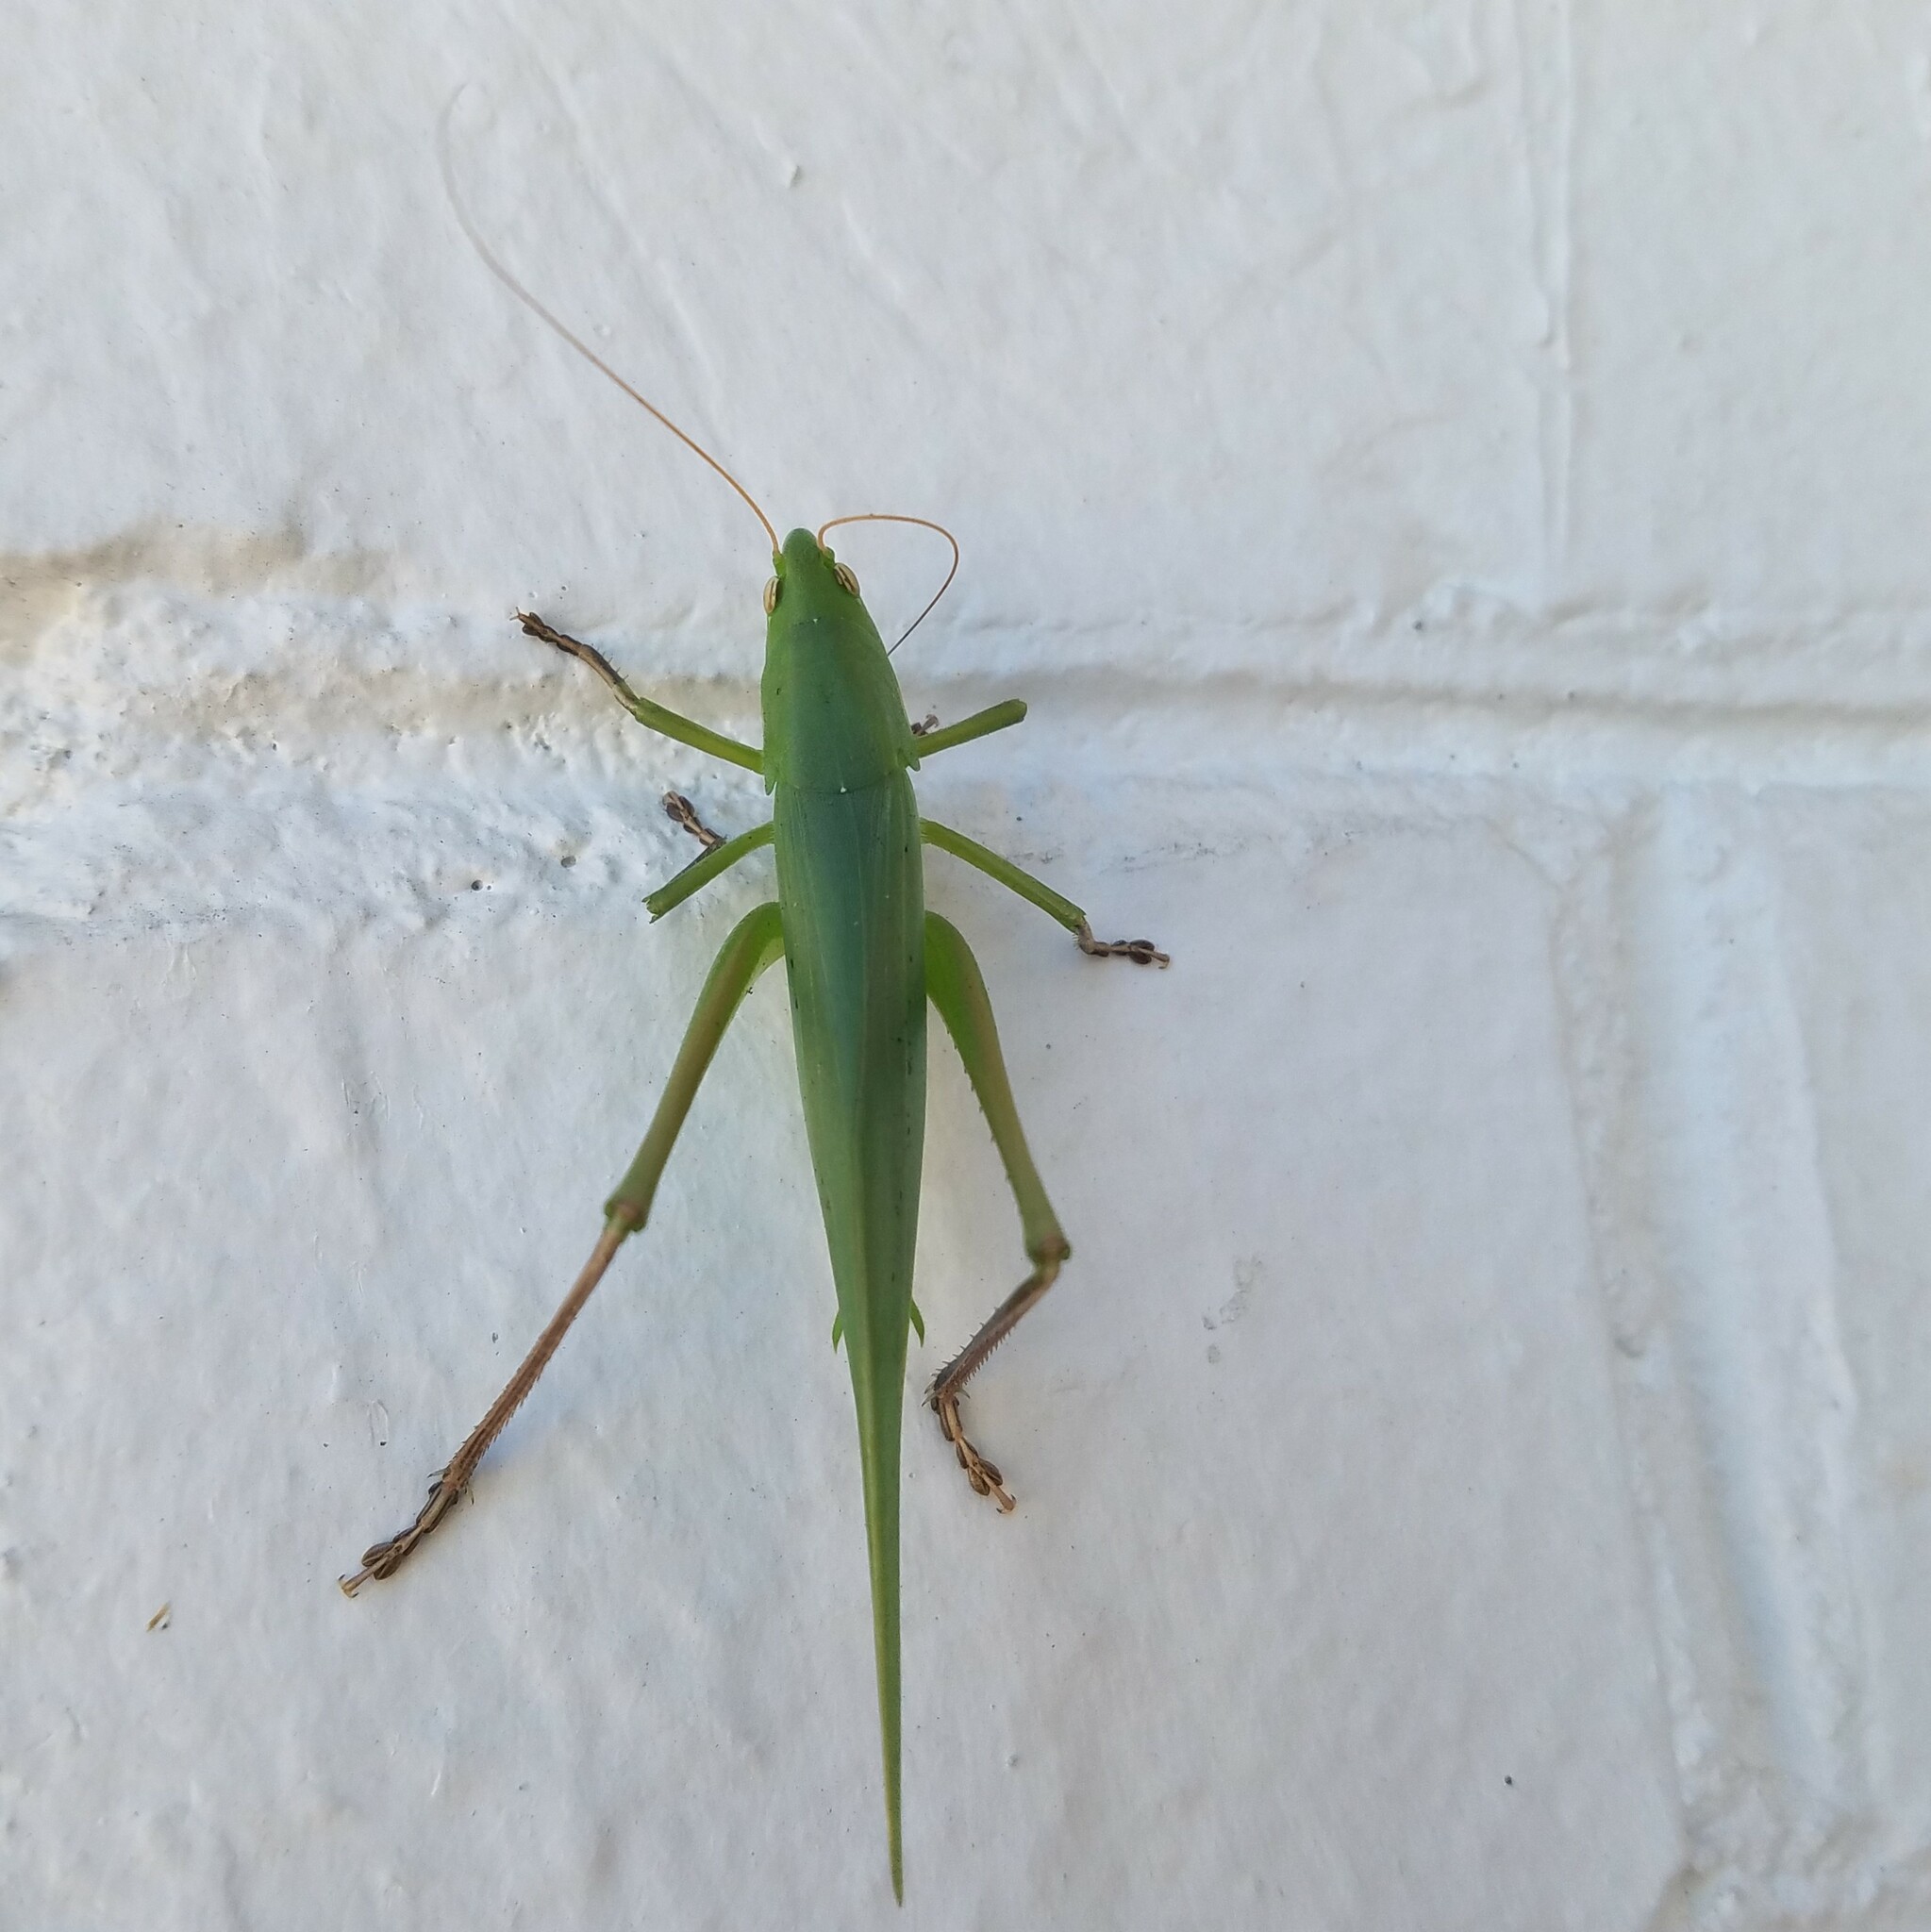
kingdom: Animalia
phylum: Arthropoda
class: Insecta
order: Orthoptera
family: Tettigoniidae
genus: Neoconocephalus
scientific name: Neoconocephalus triops
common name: Broad-tipped conehead
